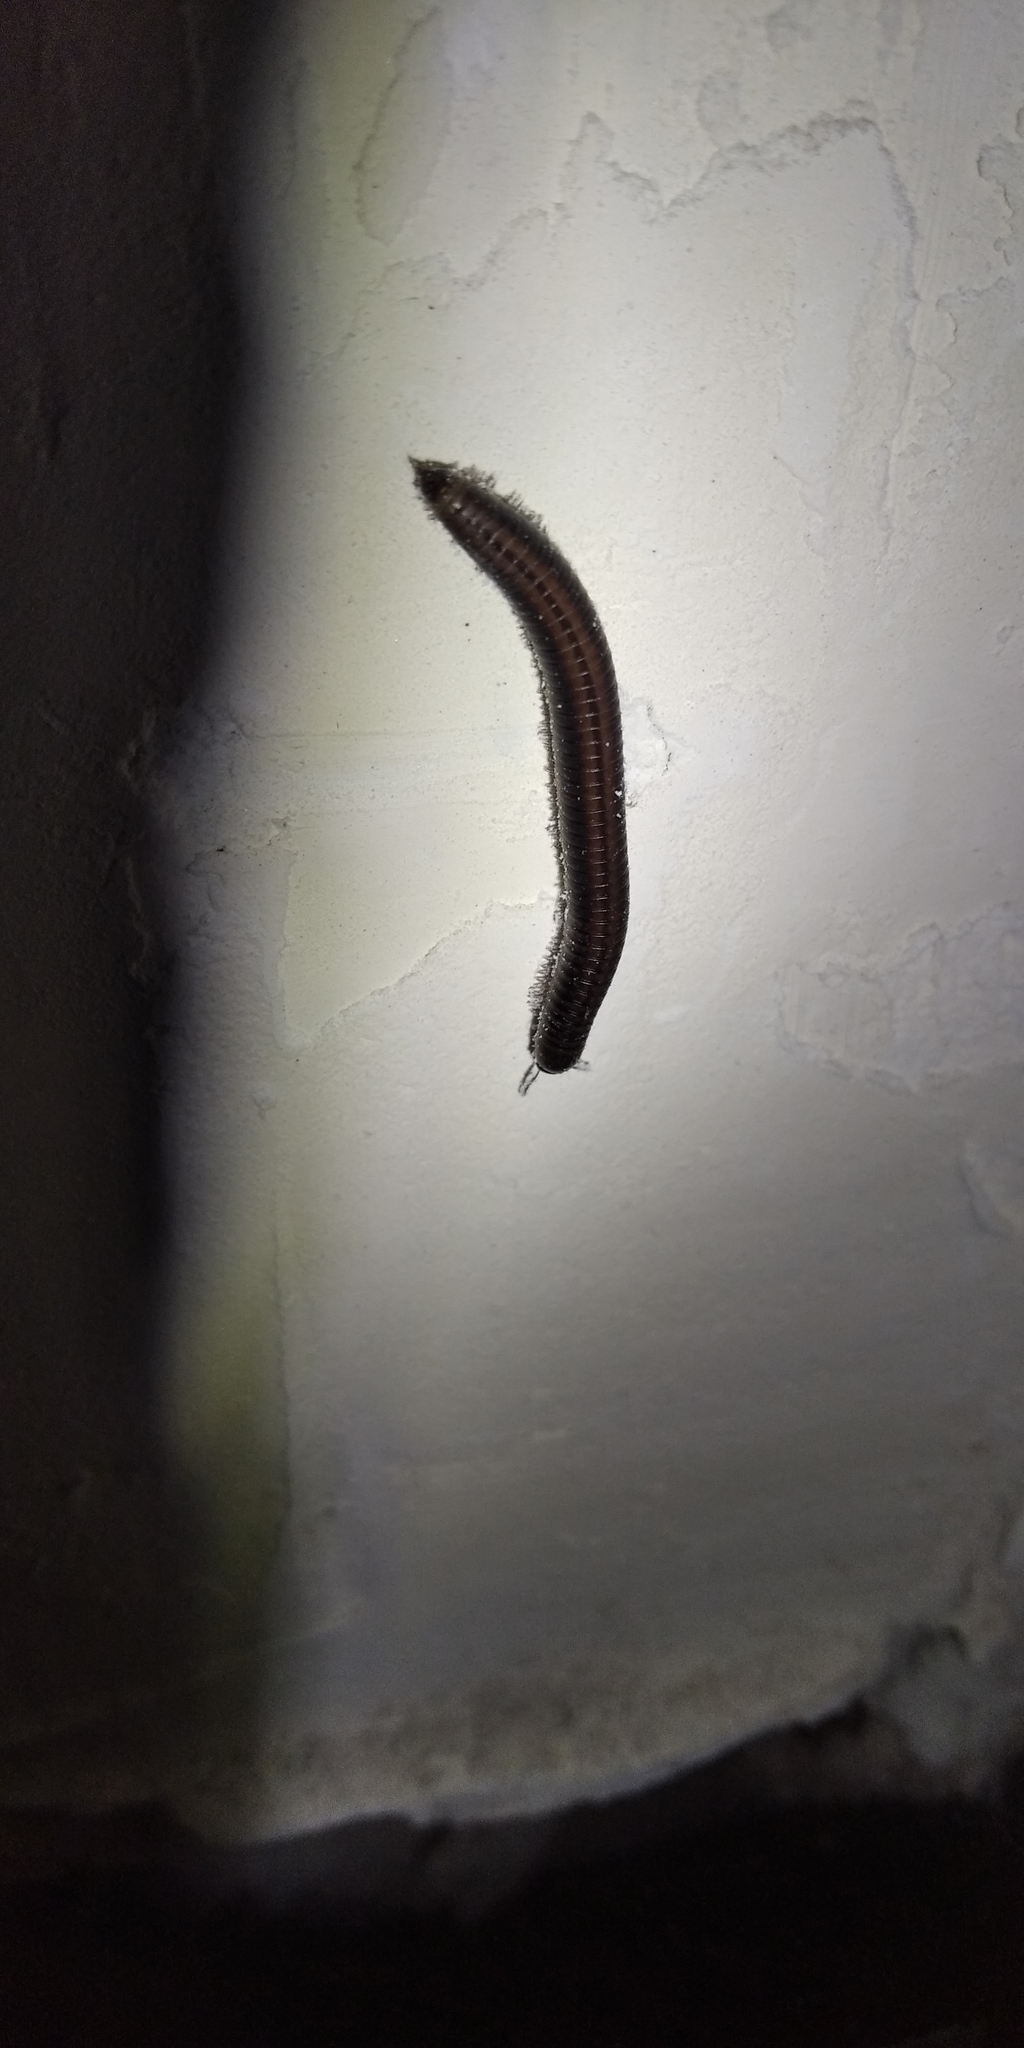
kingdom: Animalia
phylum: Arthropoda
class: Diplopoda
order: Julida
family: Julidae
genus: Rossiulus
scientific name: Rossiulus kessleri
